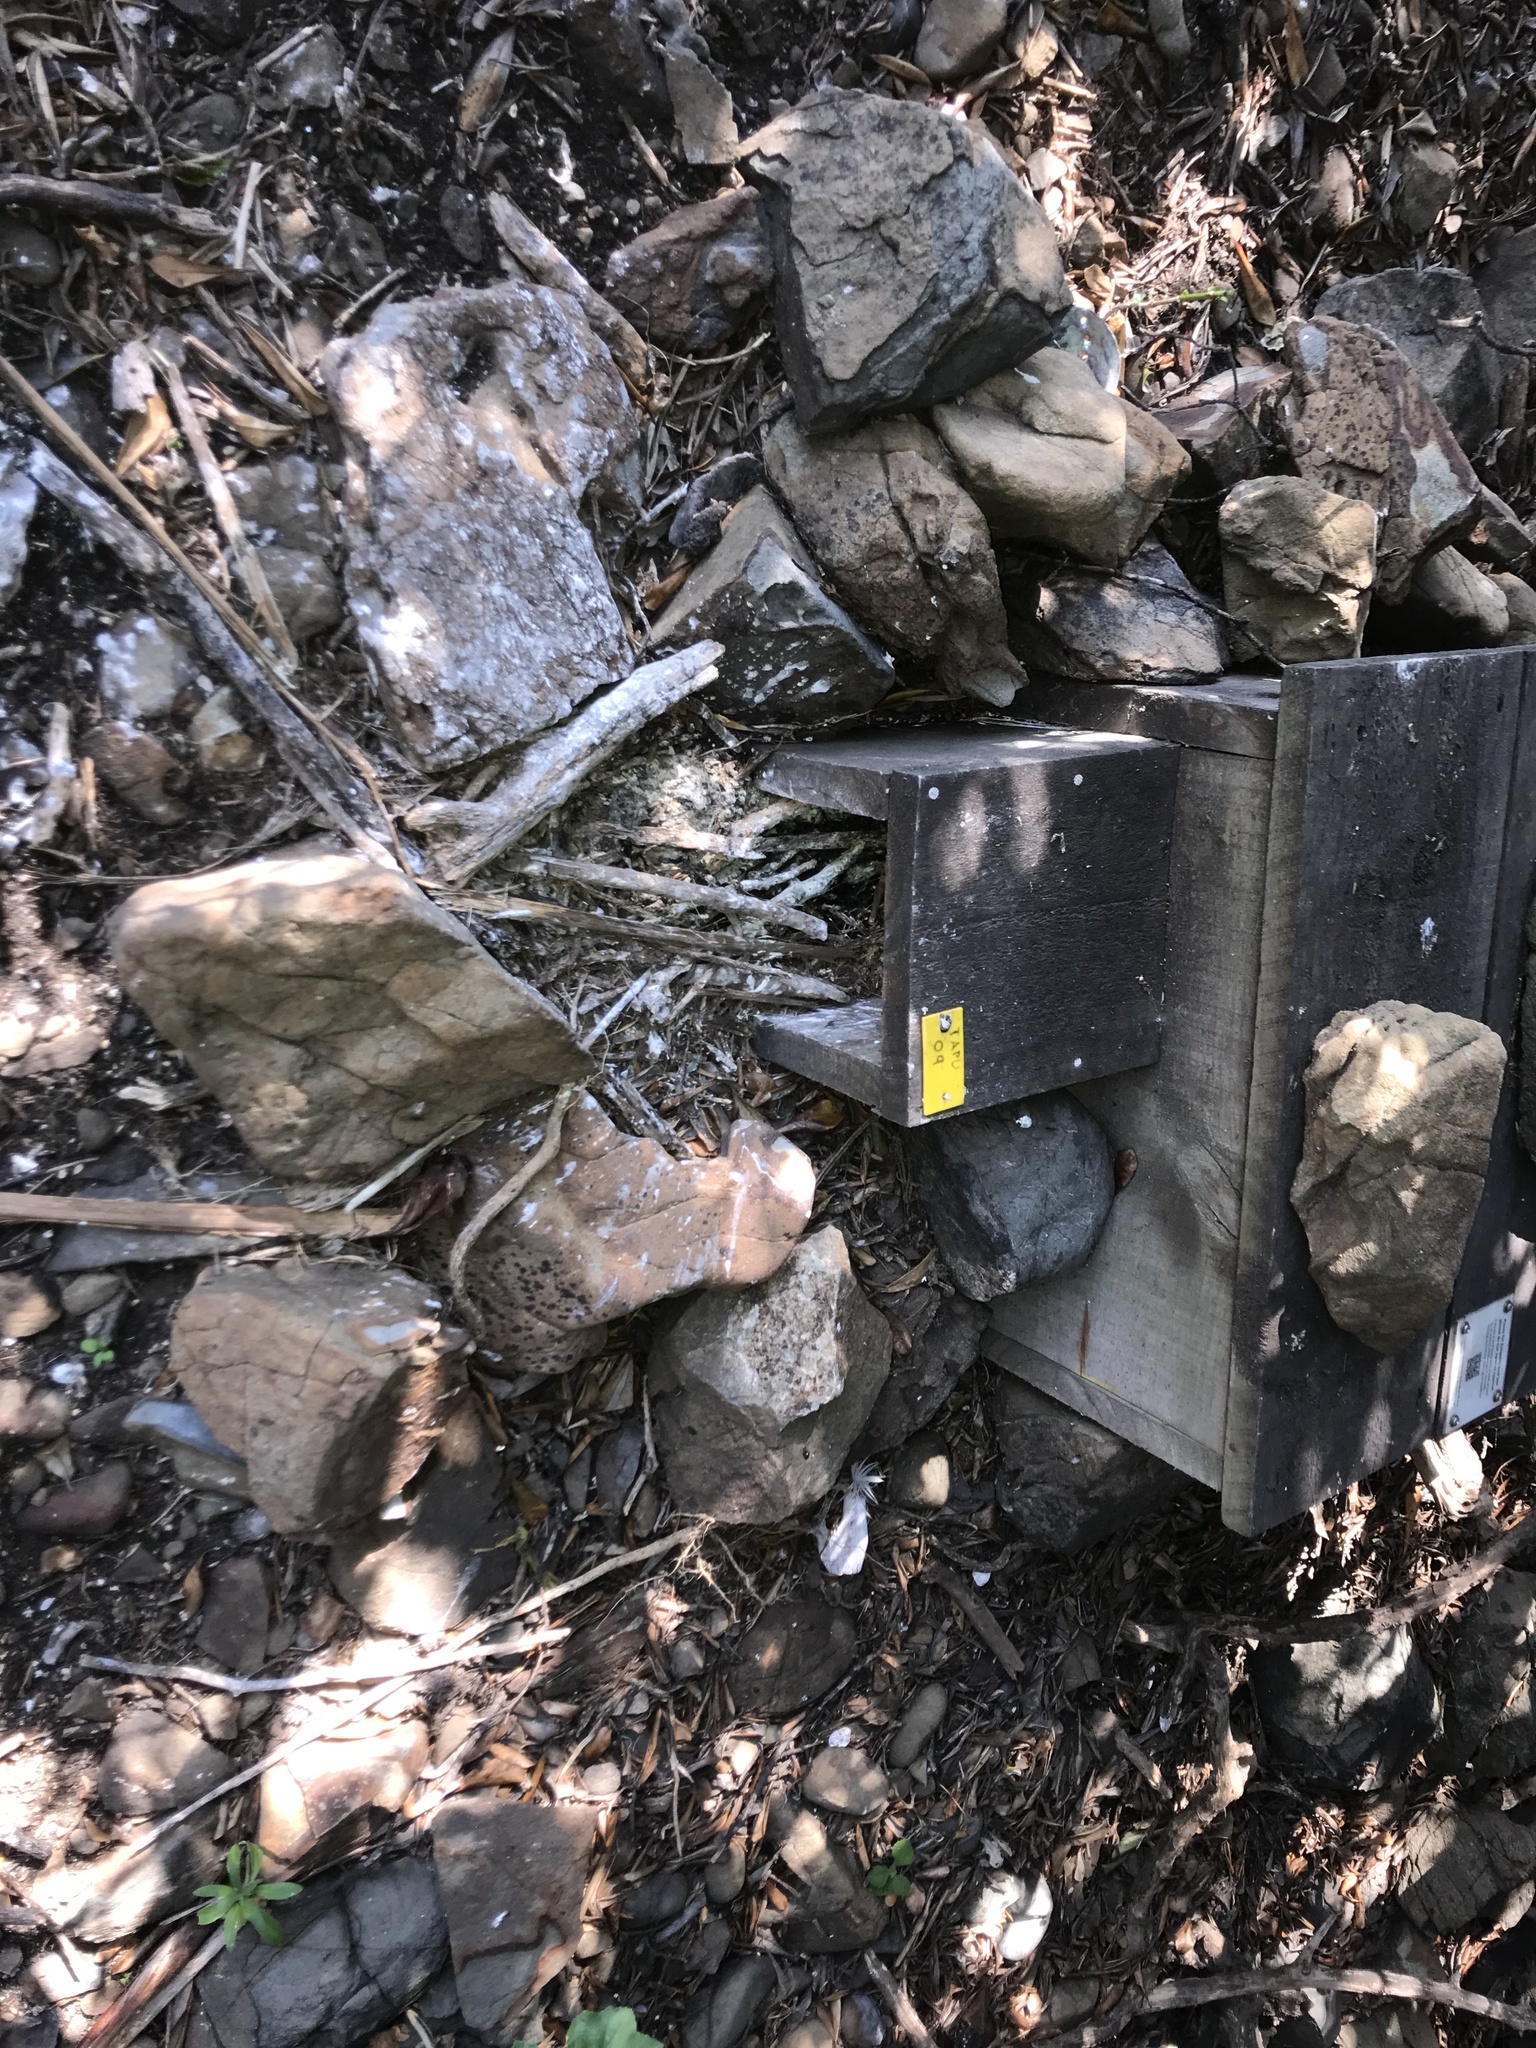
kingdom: Animalia
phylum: Chordata
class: Aves
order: Sphenisciformes
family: Spheniscidae
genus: Eudyptula
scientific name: Eudyptula minor
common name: Little penguin
